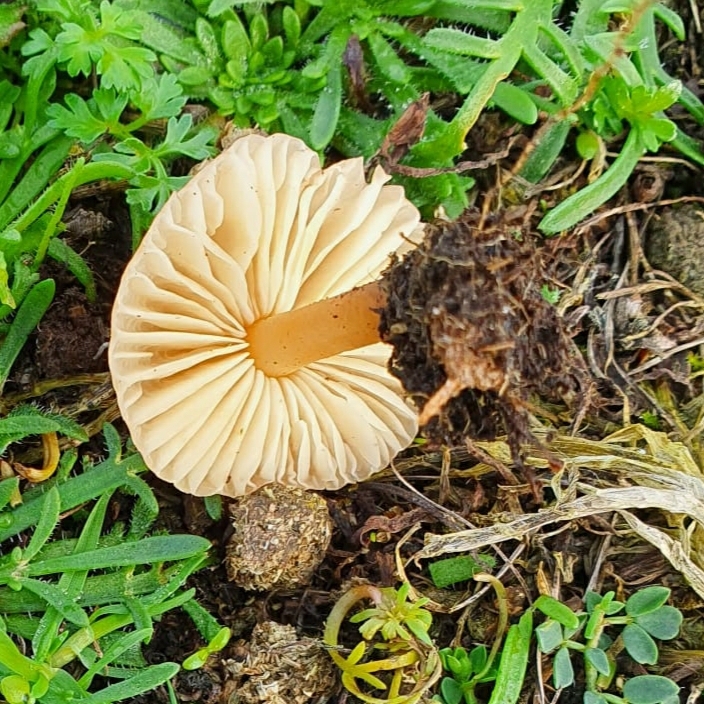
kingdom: Fungi
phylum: Basidiomycota
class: Agaricomycetes
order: Agaricales
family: Marasmiaceae
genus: Marasmius
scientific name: Marasmius oreades
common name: Fairy ring champignon
